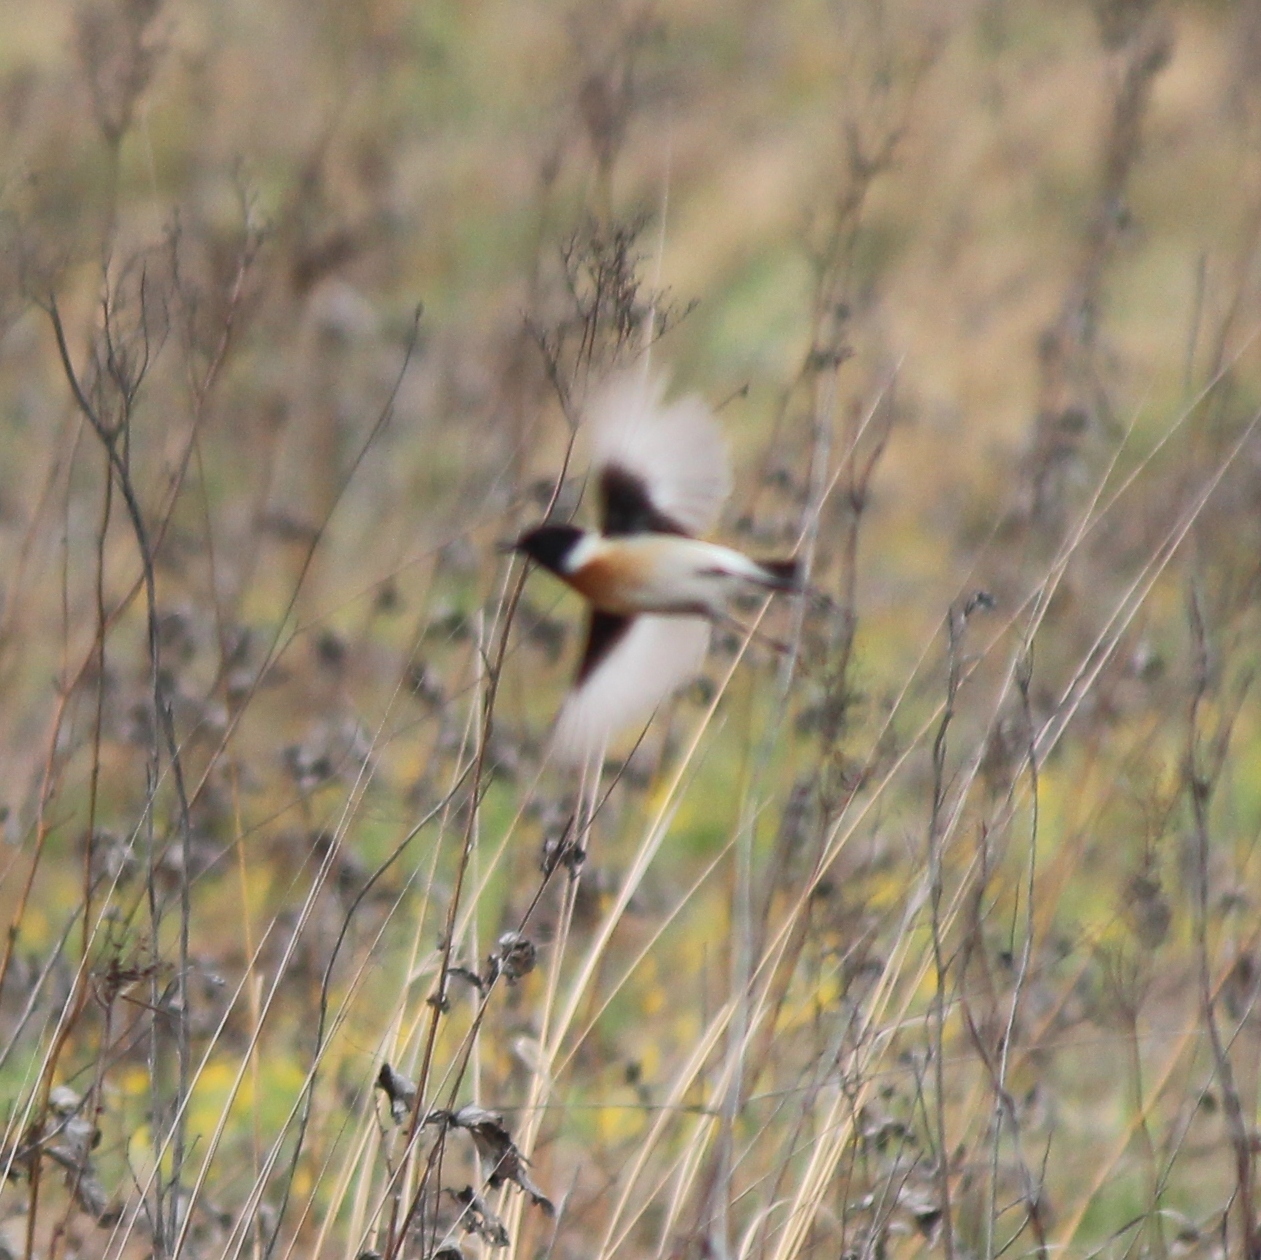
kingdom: Animalia
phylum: Chordata
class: Aves
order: Passeriformes
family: Muscicapidae
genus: Saxicola
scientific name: Saxicola maurus
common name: Siberian stonechat
